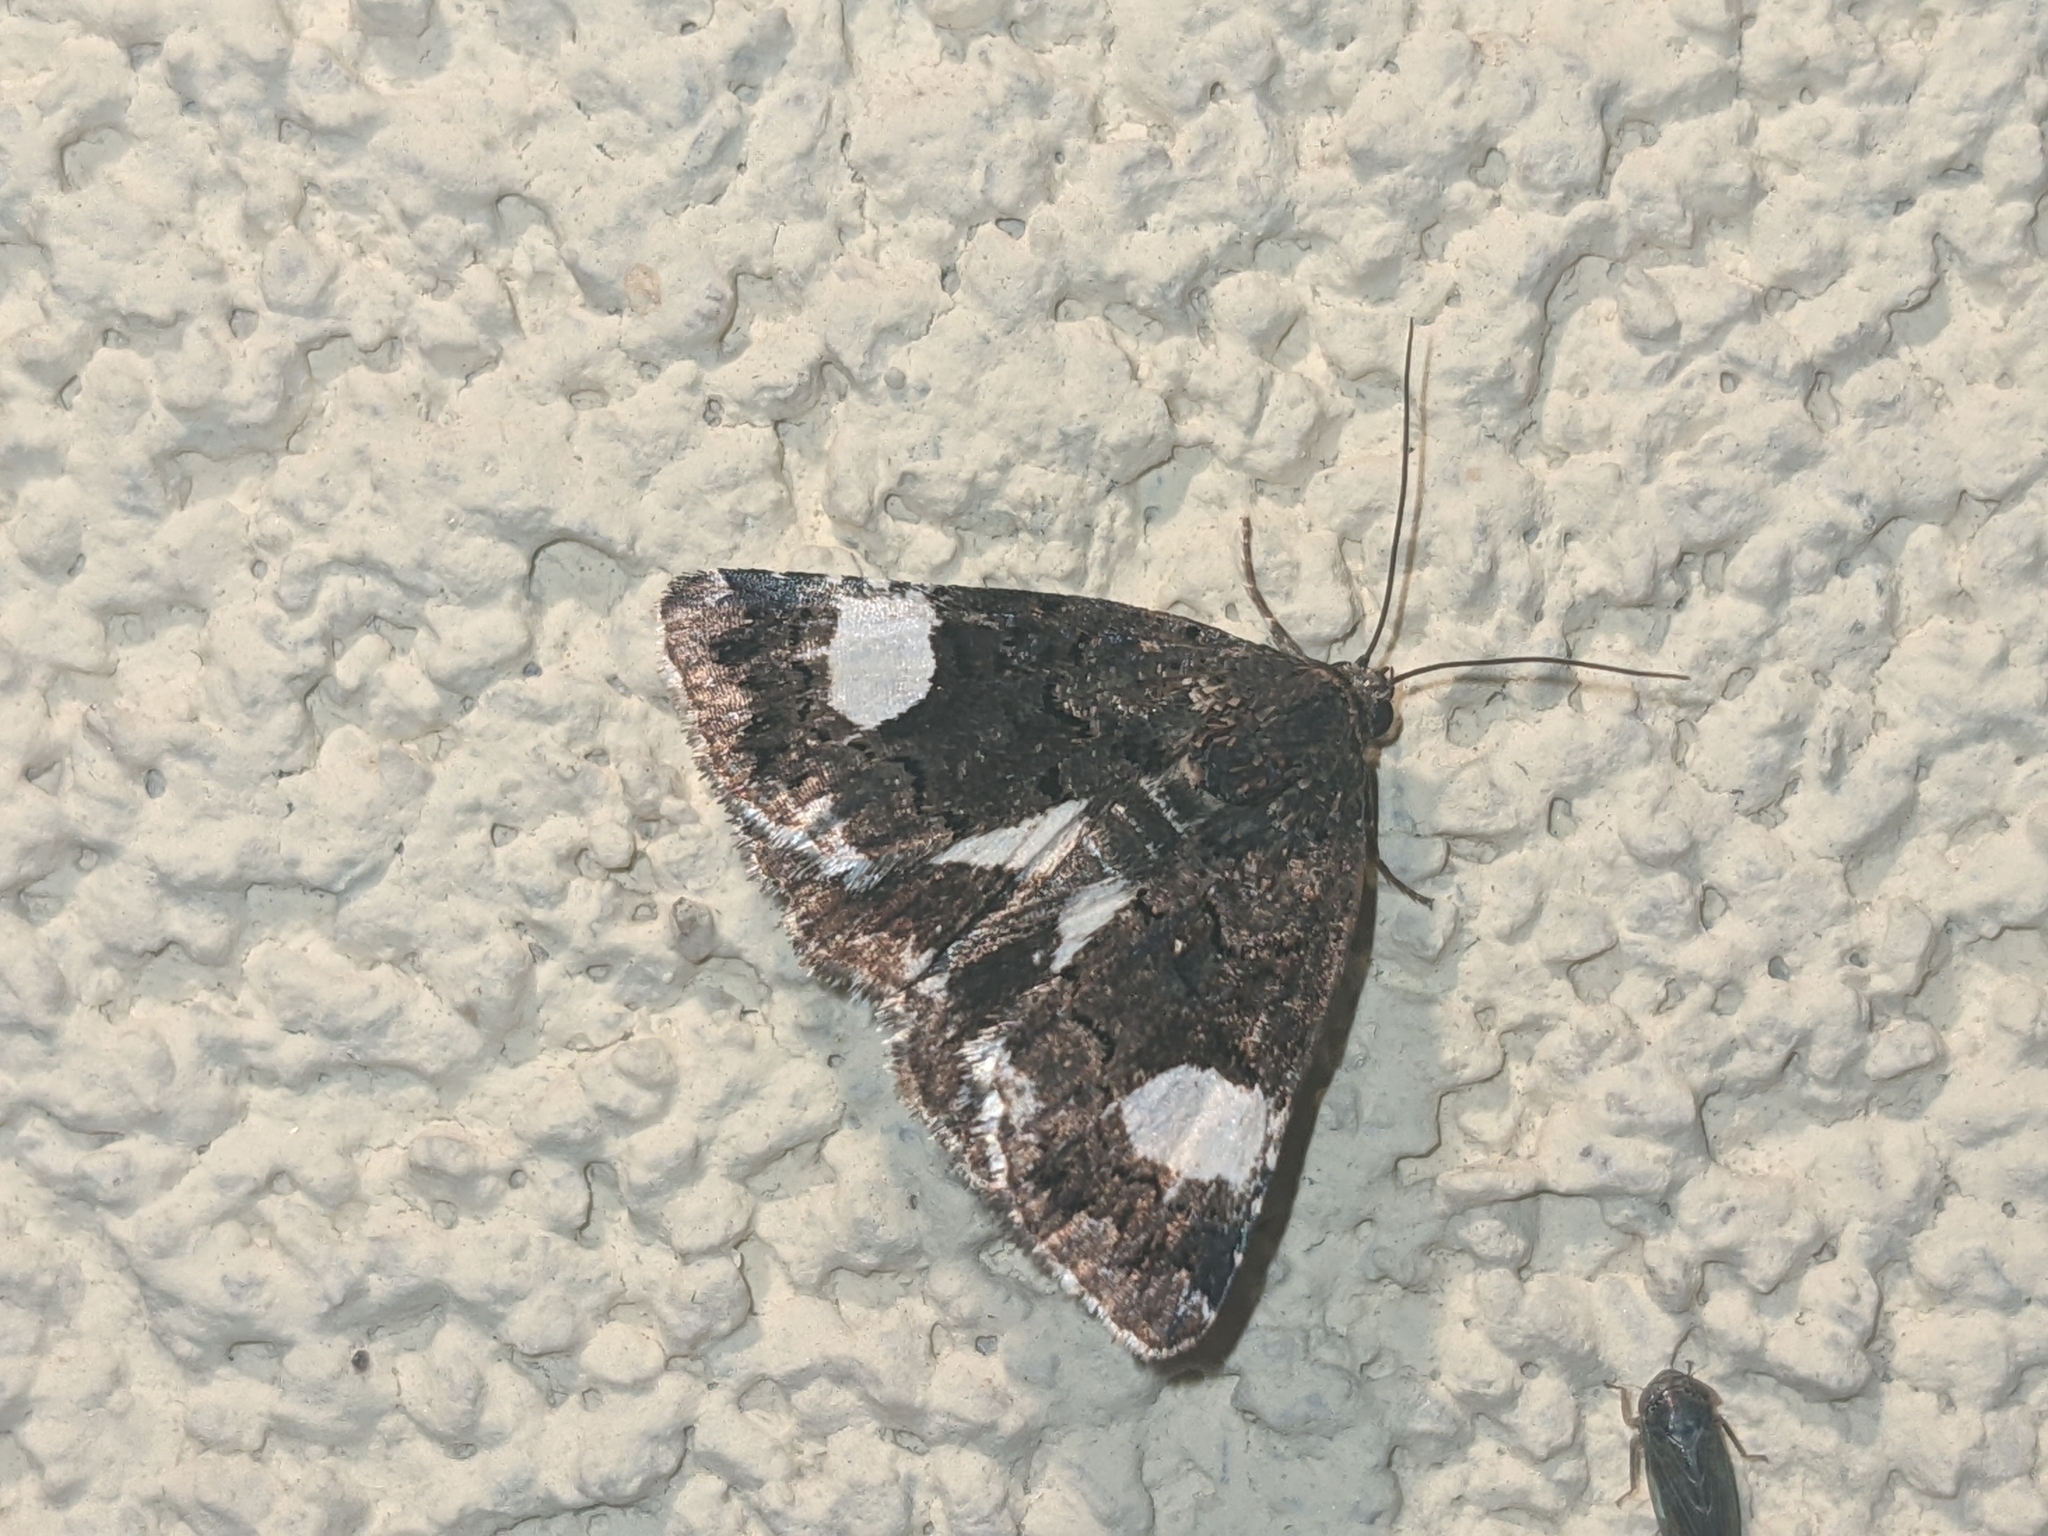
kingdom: Animalia
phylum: Arthropoda
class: Insecta
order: Lepidoptera
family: Erebidae
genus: Tyta
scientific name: Tyta luctuosa
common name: Four-spotted
